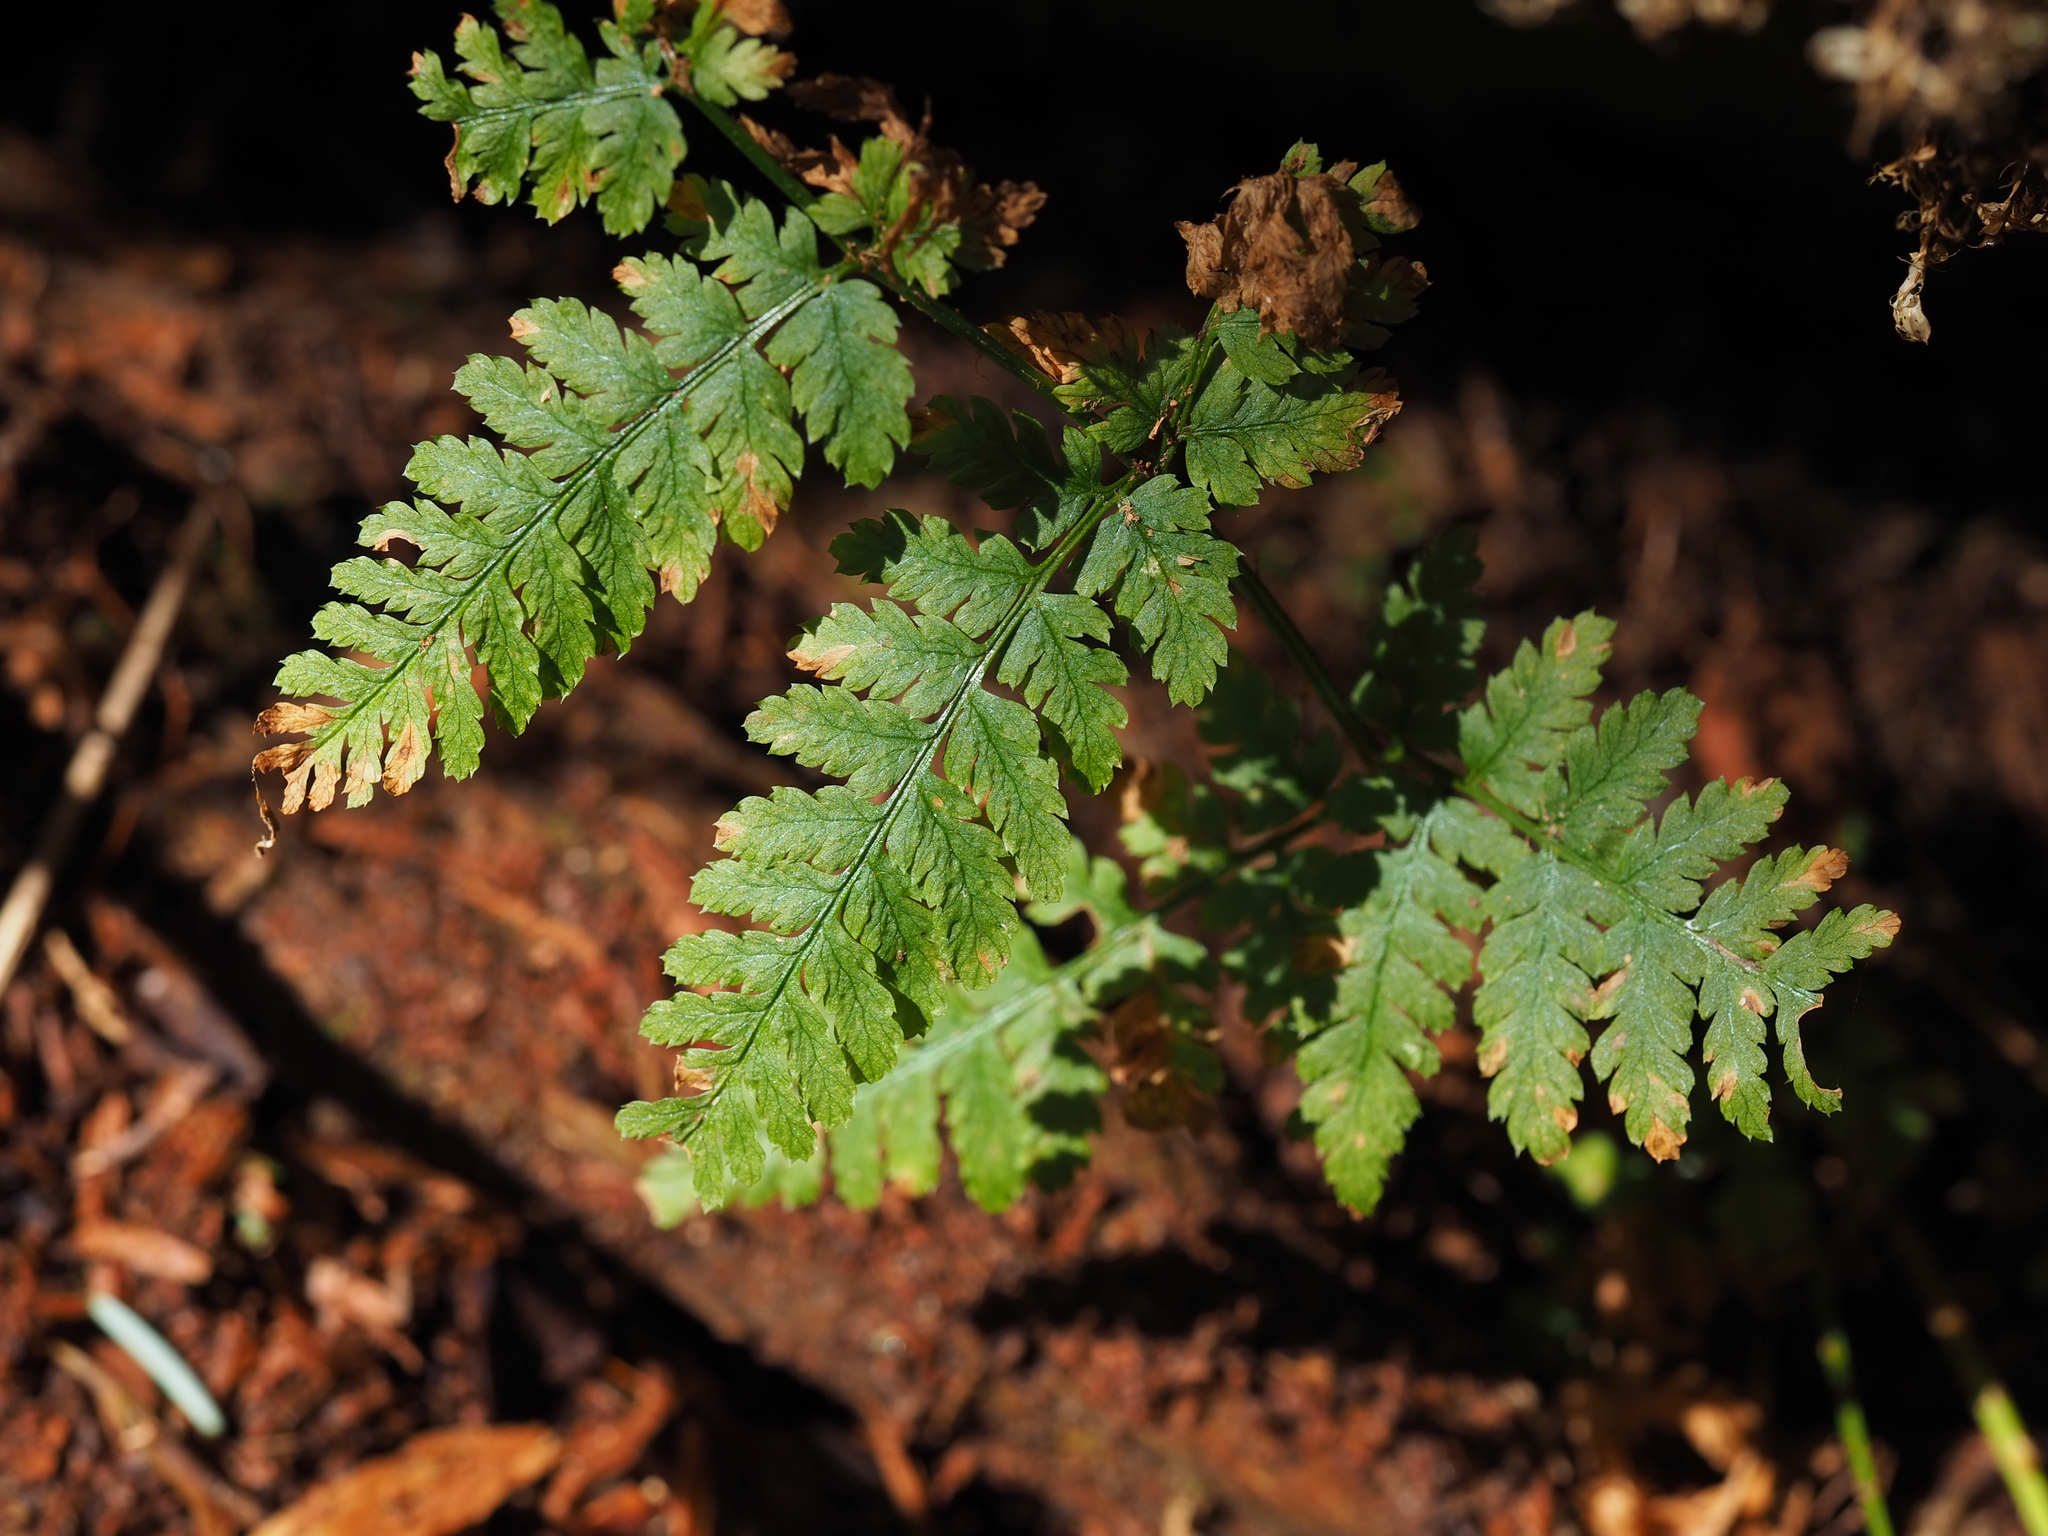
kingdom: Plantae
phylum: Tracheophyta
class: Polypodiopsida
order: Polypodiales
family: Dryopteridaceae
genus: Dryopteris
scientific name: Dryopteris expansa
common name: Northern buckler fern
